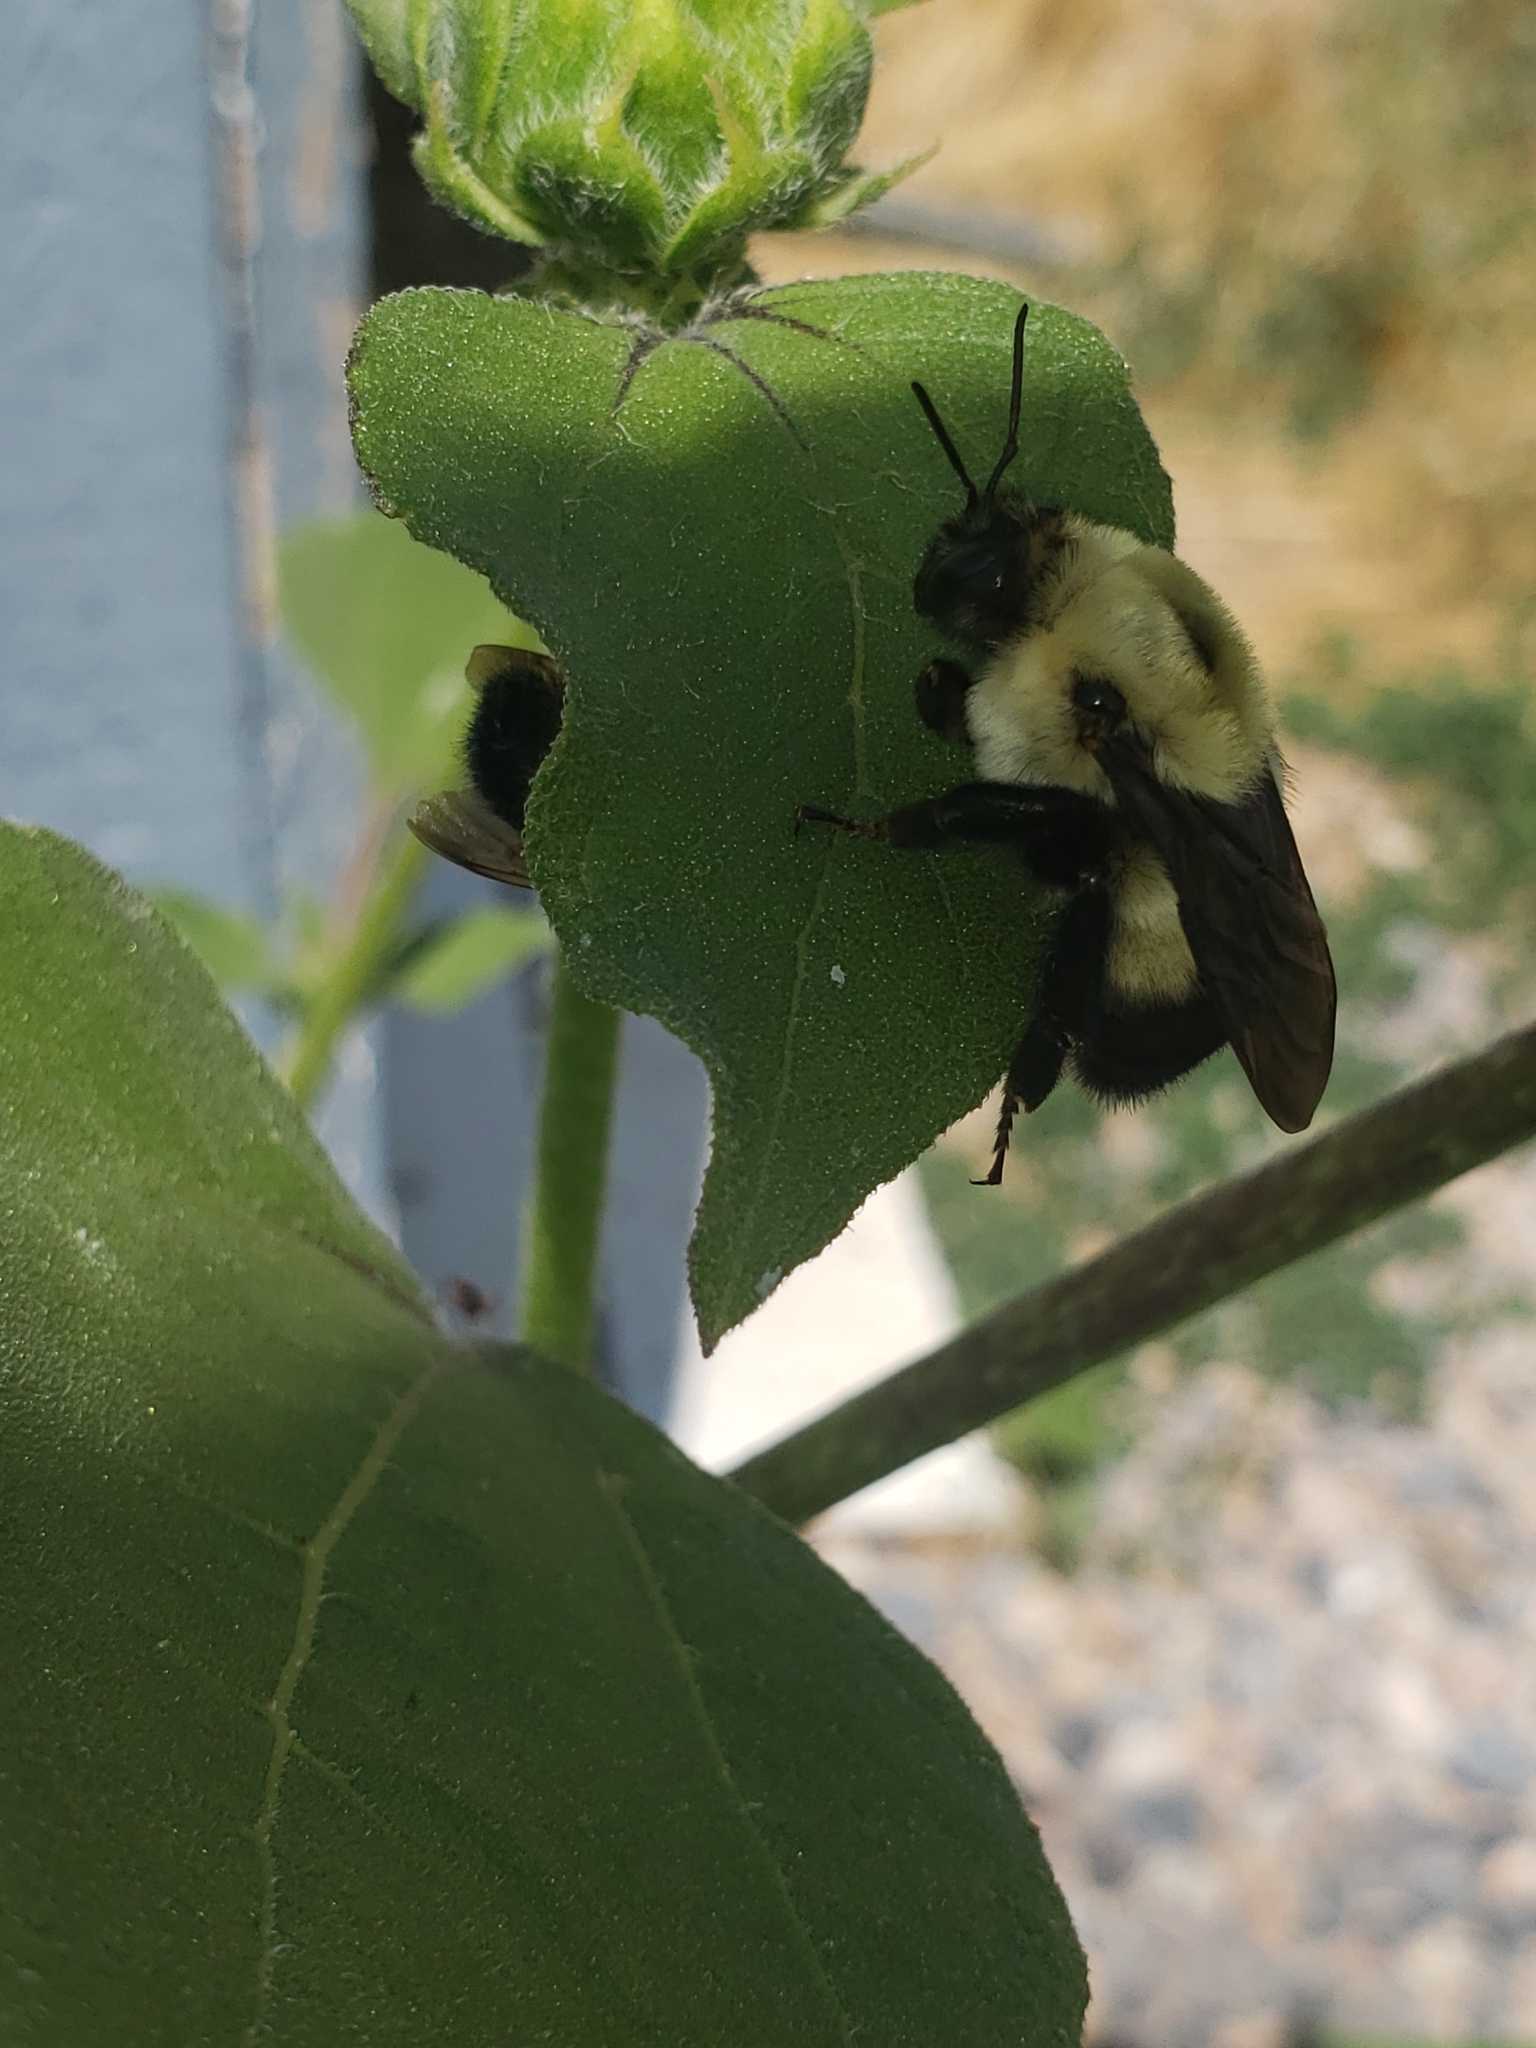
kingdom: Animalia
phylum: Arthropoda
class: Insecta
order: Hymenoptera
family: Apidae
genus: Bombus
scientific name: Bombus griseocollis
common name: Brown-belted bumble bee
